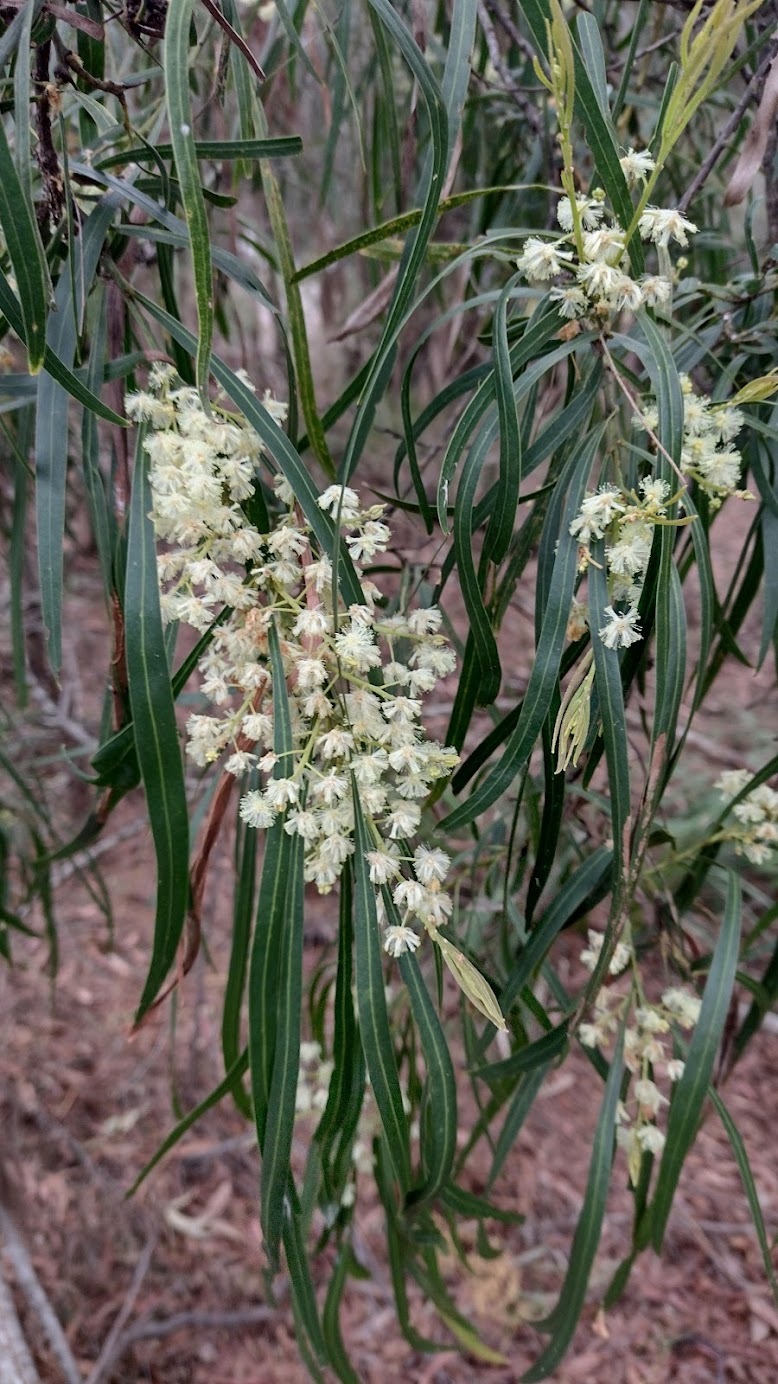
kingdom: Plantae
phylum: Tracheophyta
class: Magnoliopsida
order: Fabales
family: Fabaceae
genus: Acacia
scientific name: Acacia mabellae
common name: Black wattle
